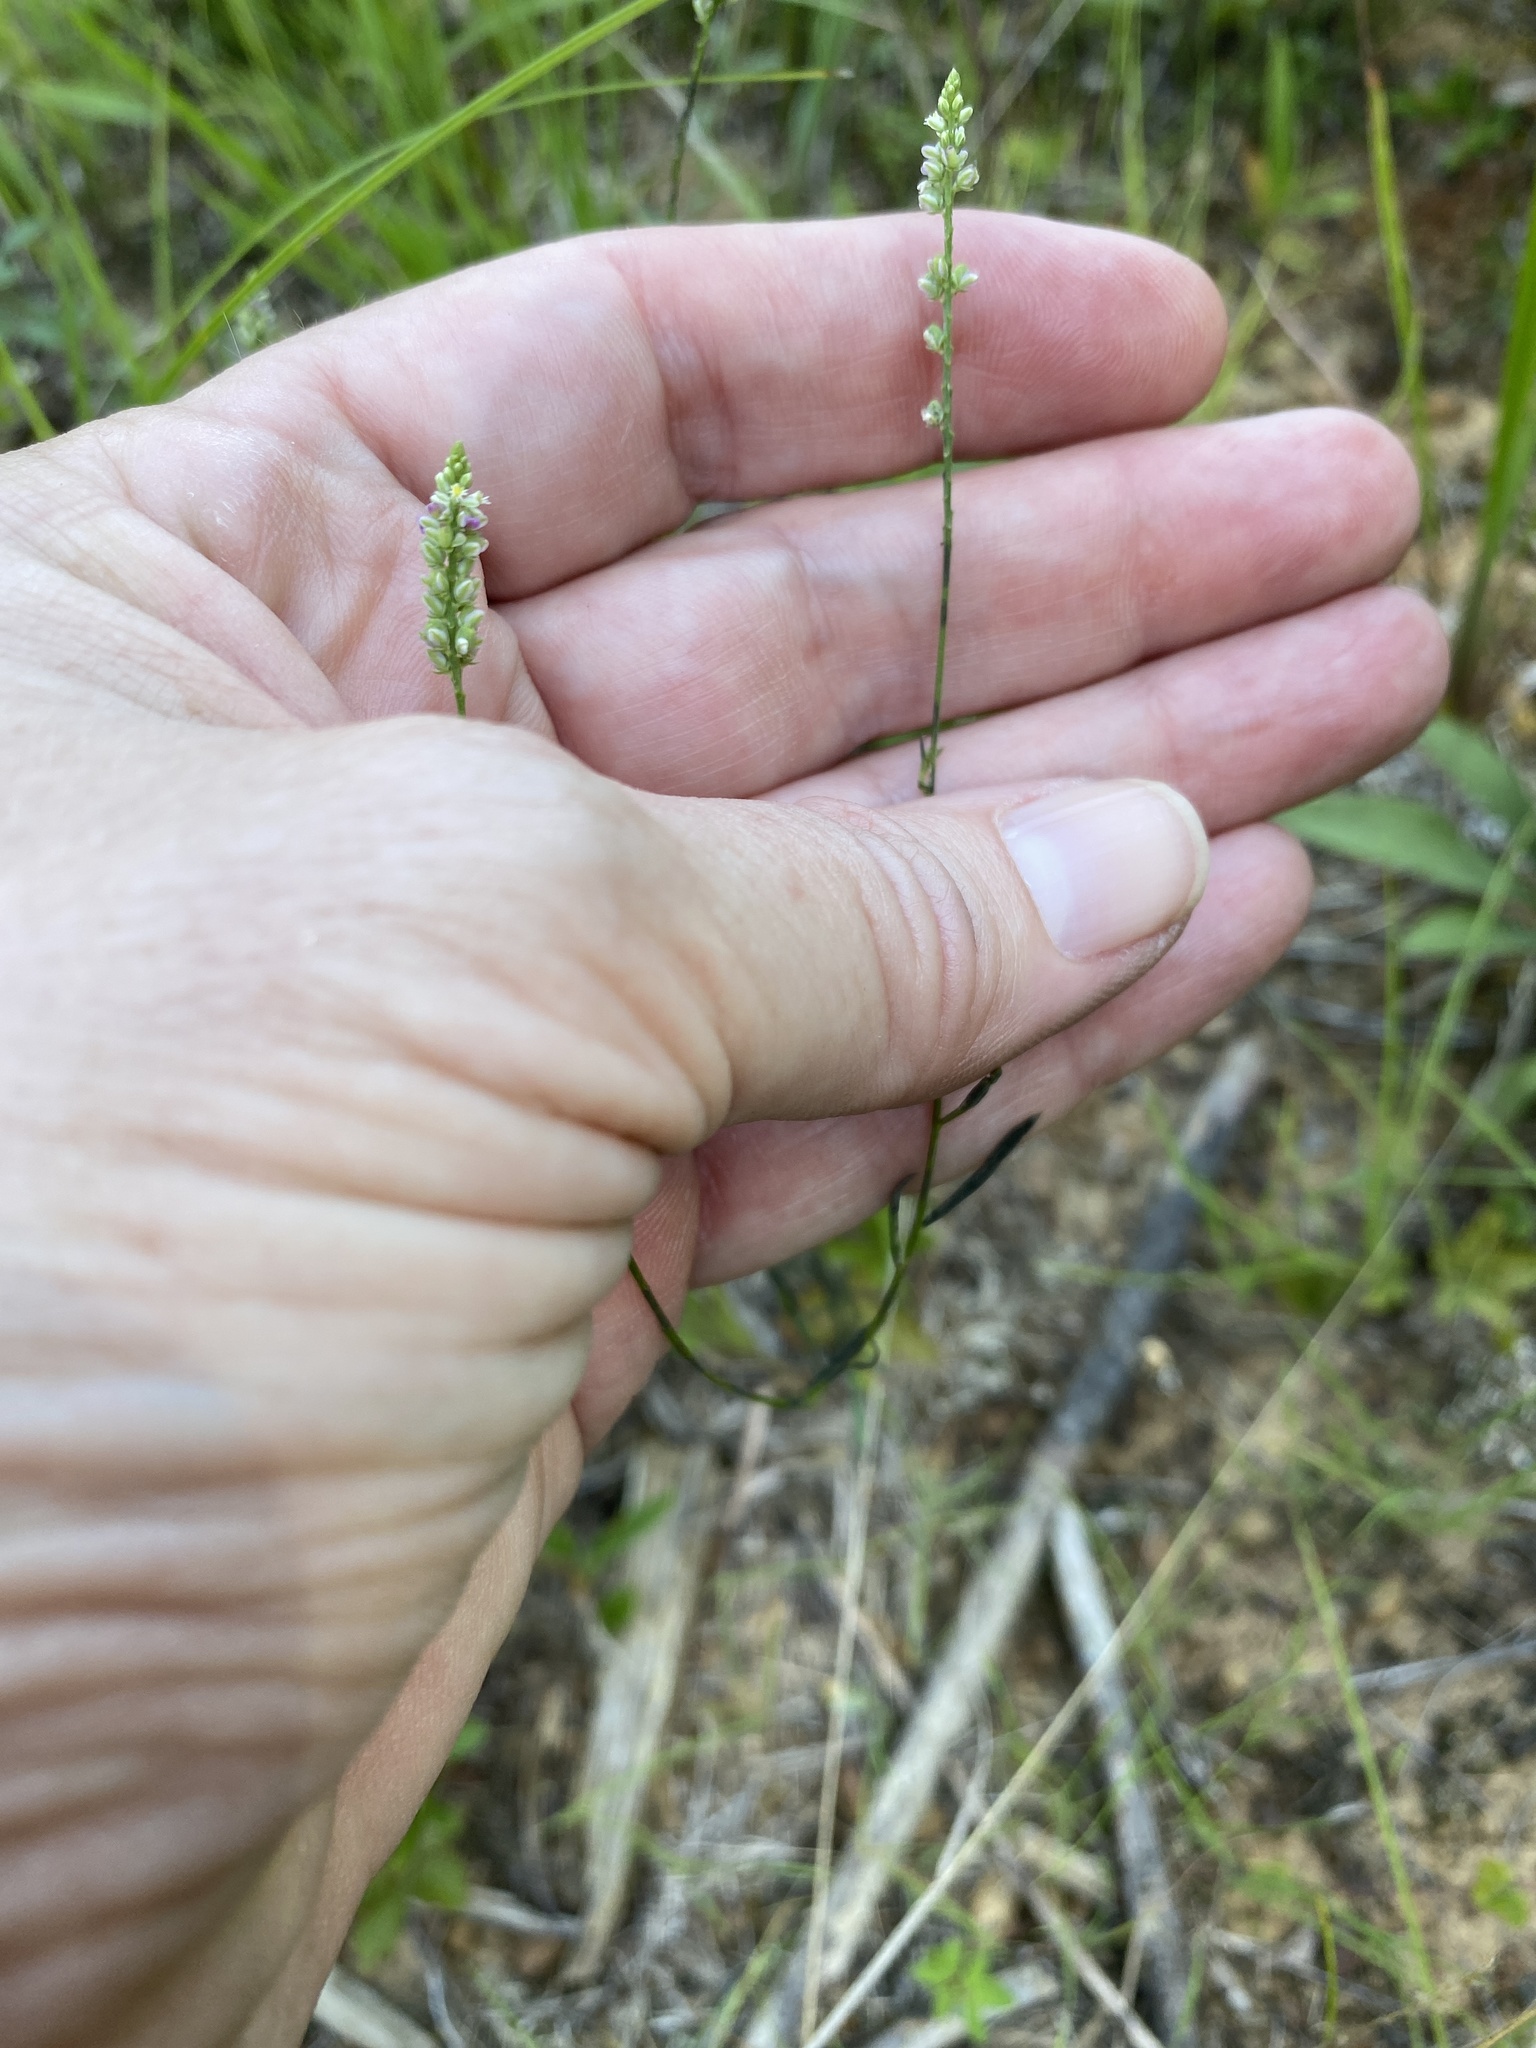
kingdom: Plantae
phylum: Tracheophyta
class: Magnoliopsida
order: Fabales
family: Polygalaceae
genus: Polygala
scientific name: Polygala ambigua
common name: Alternate milkwort
